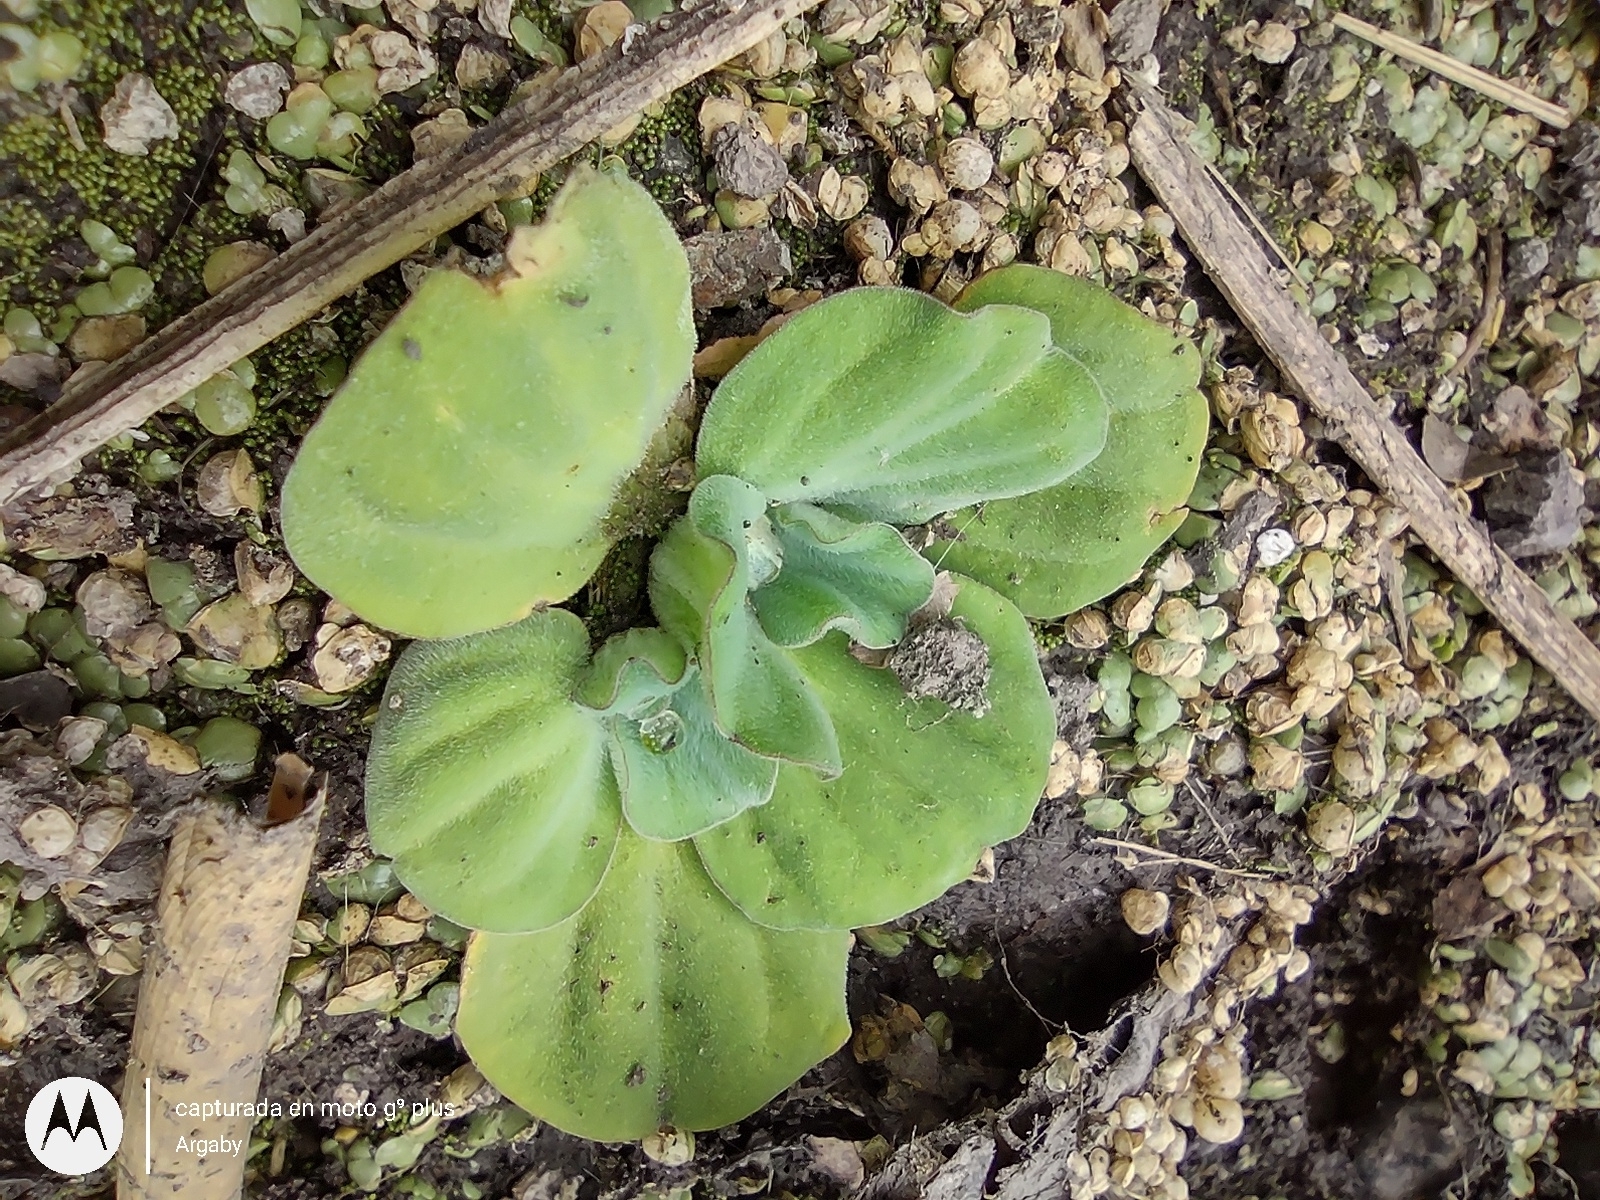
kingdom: Plantae
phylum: Tracheophyta
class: Liliopsida
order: Alismatales
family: Araceae
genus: Pistia
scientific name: Pistia stratiotes
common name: Water lettuce
